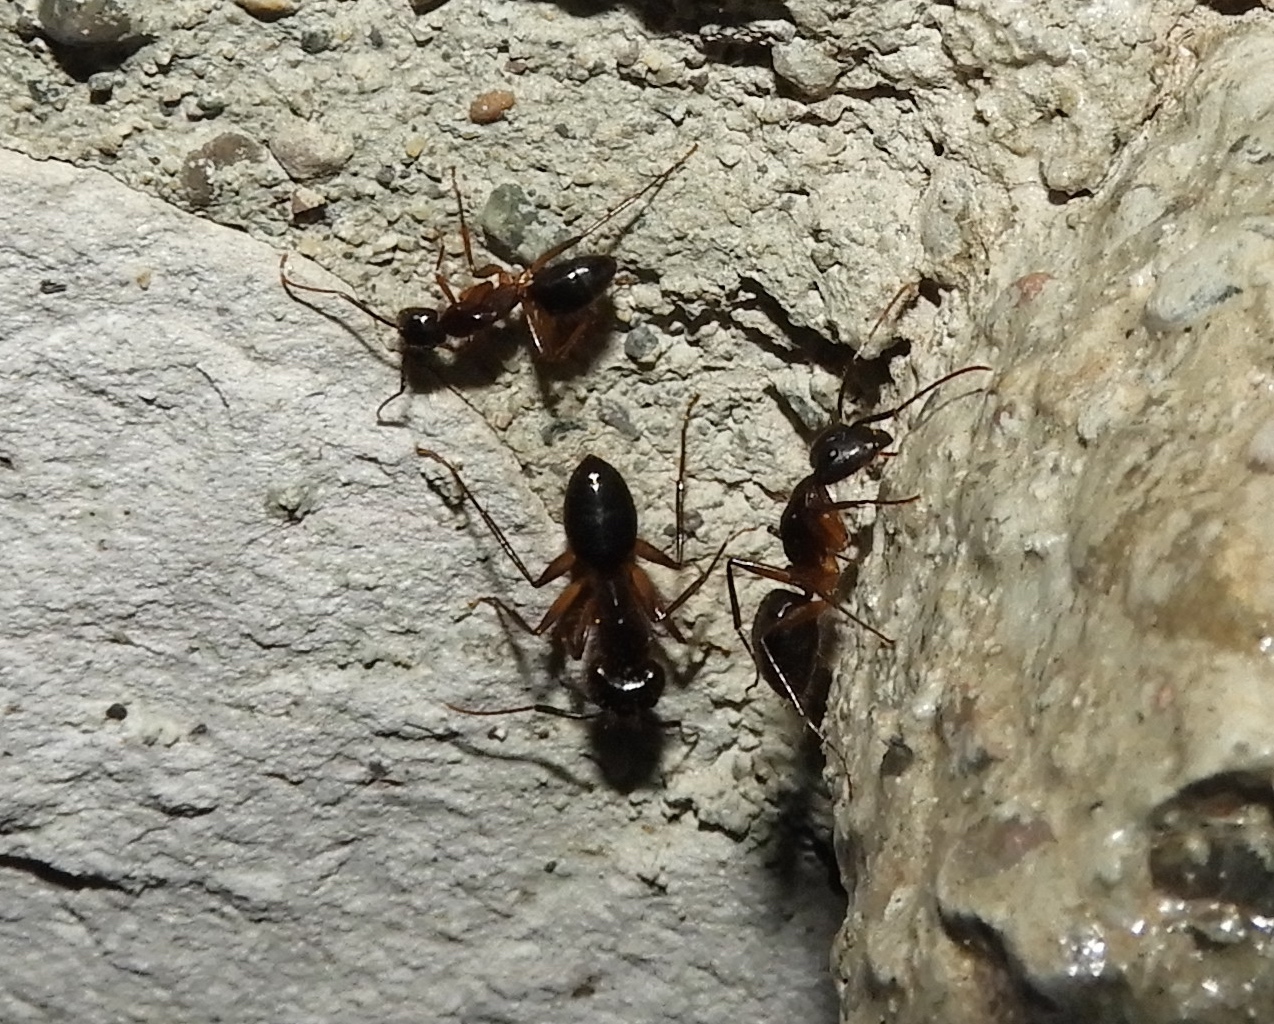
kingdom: Animalia
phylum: Arthropoda
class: Insecta
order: Hymenoptera
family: Formicidae
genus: Camponotus
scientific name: Camponotus atriceps
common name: Florida carpenter ant
